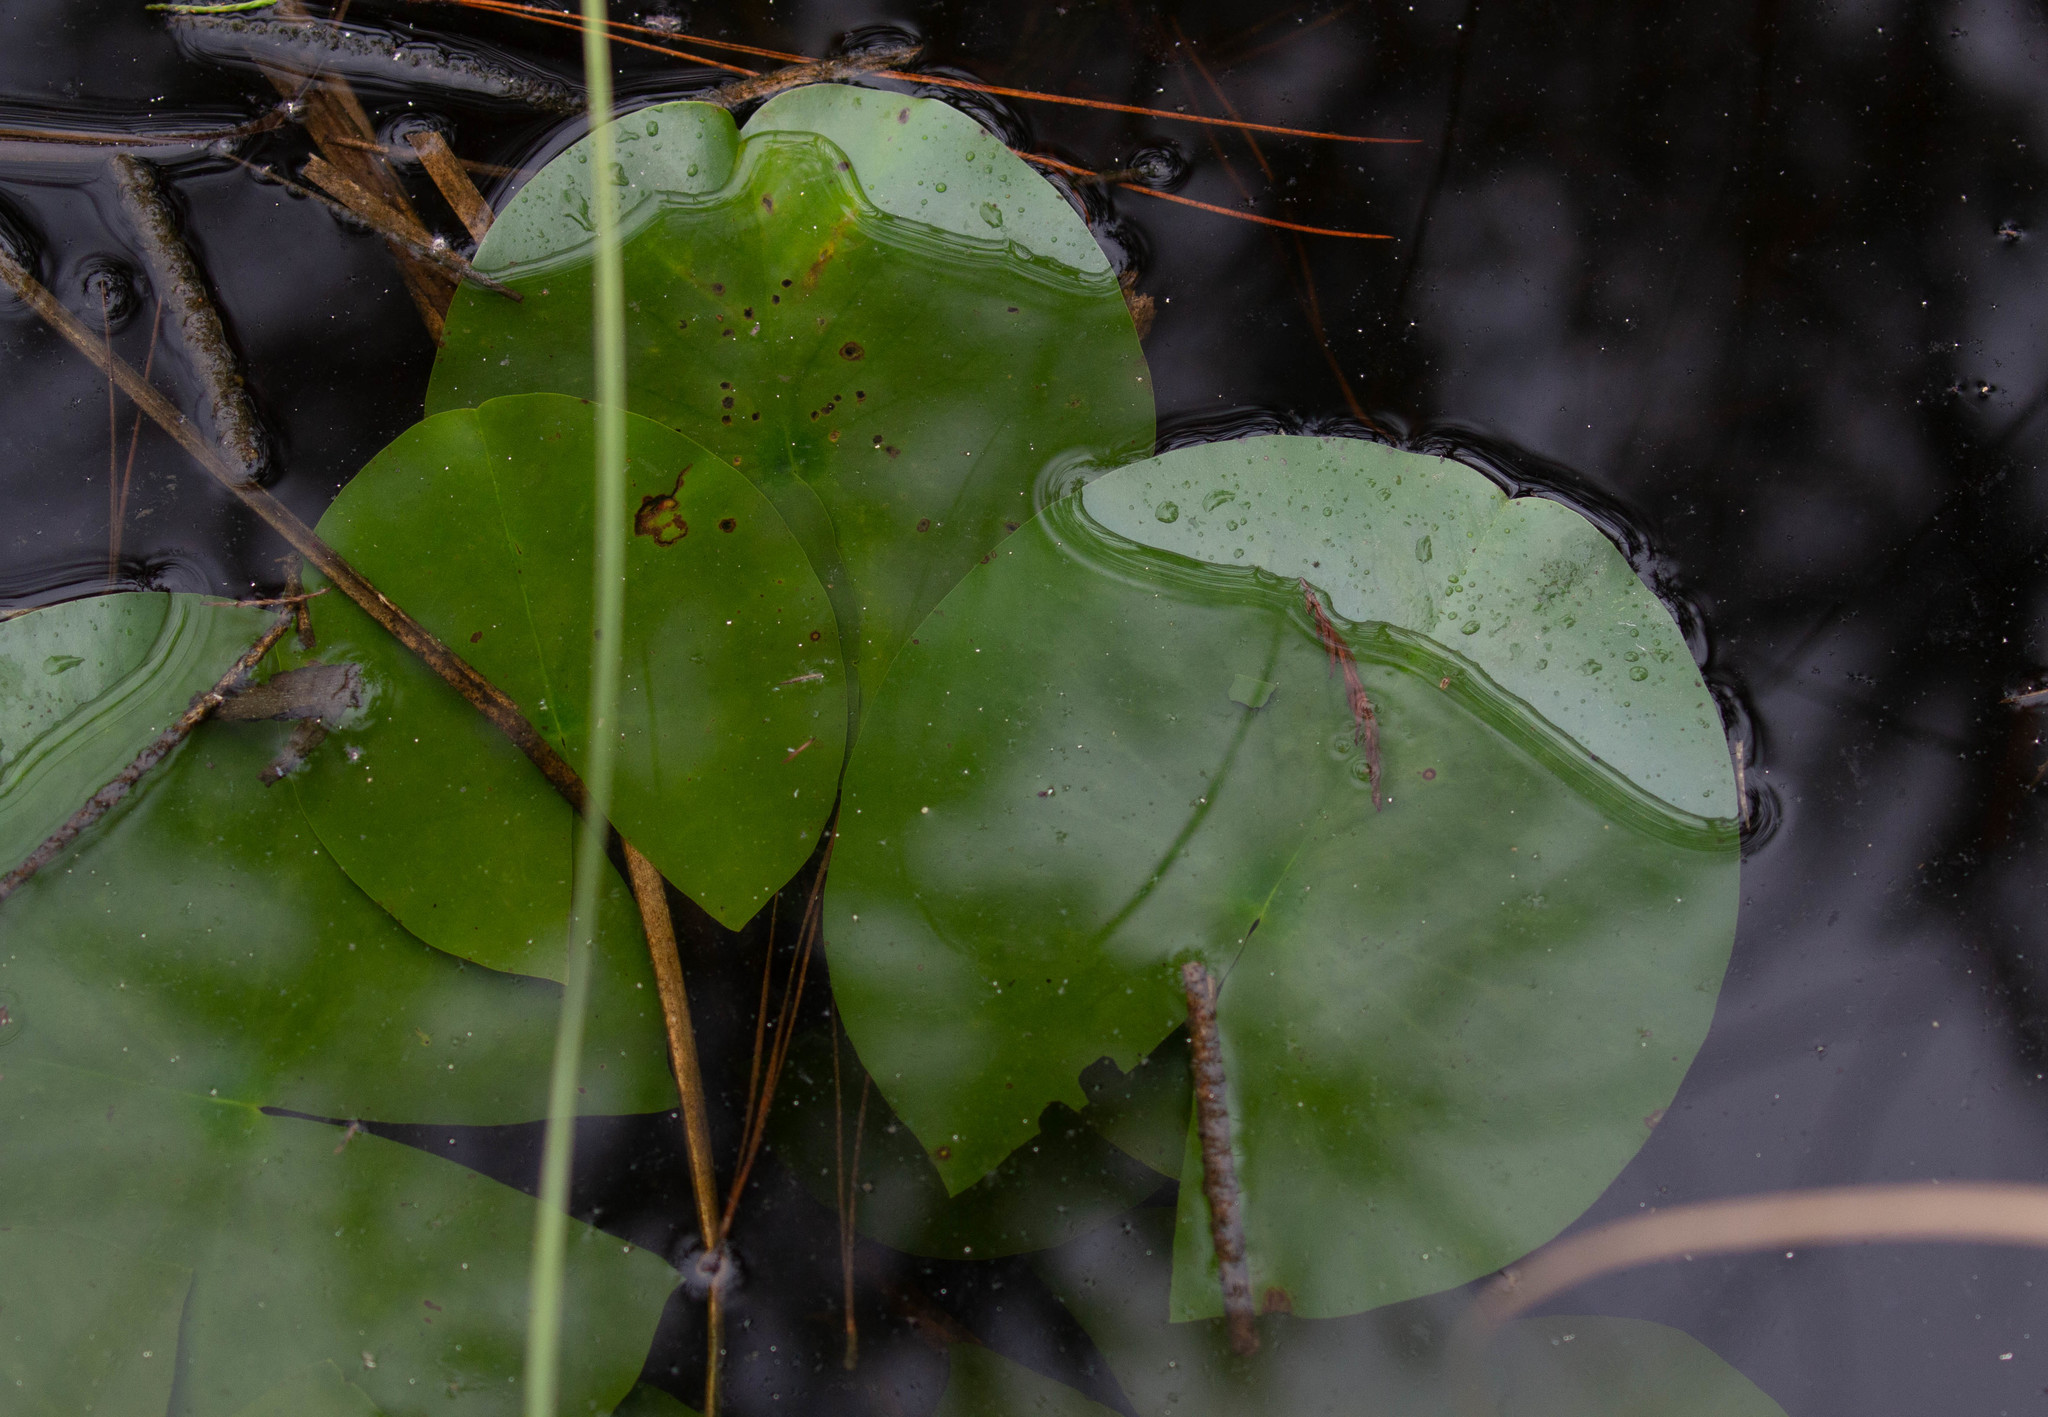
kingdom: Plantae
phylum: Tracheophyta
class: Magnoliopsida
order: Nymphaeales
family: Nymphaeaceae
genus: Nymphaea
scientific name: Nymphaea odorata
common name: Fragrant water-lily
